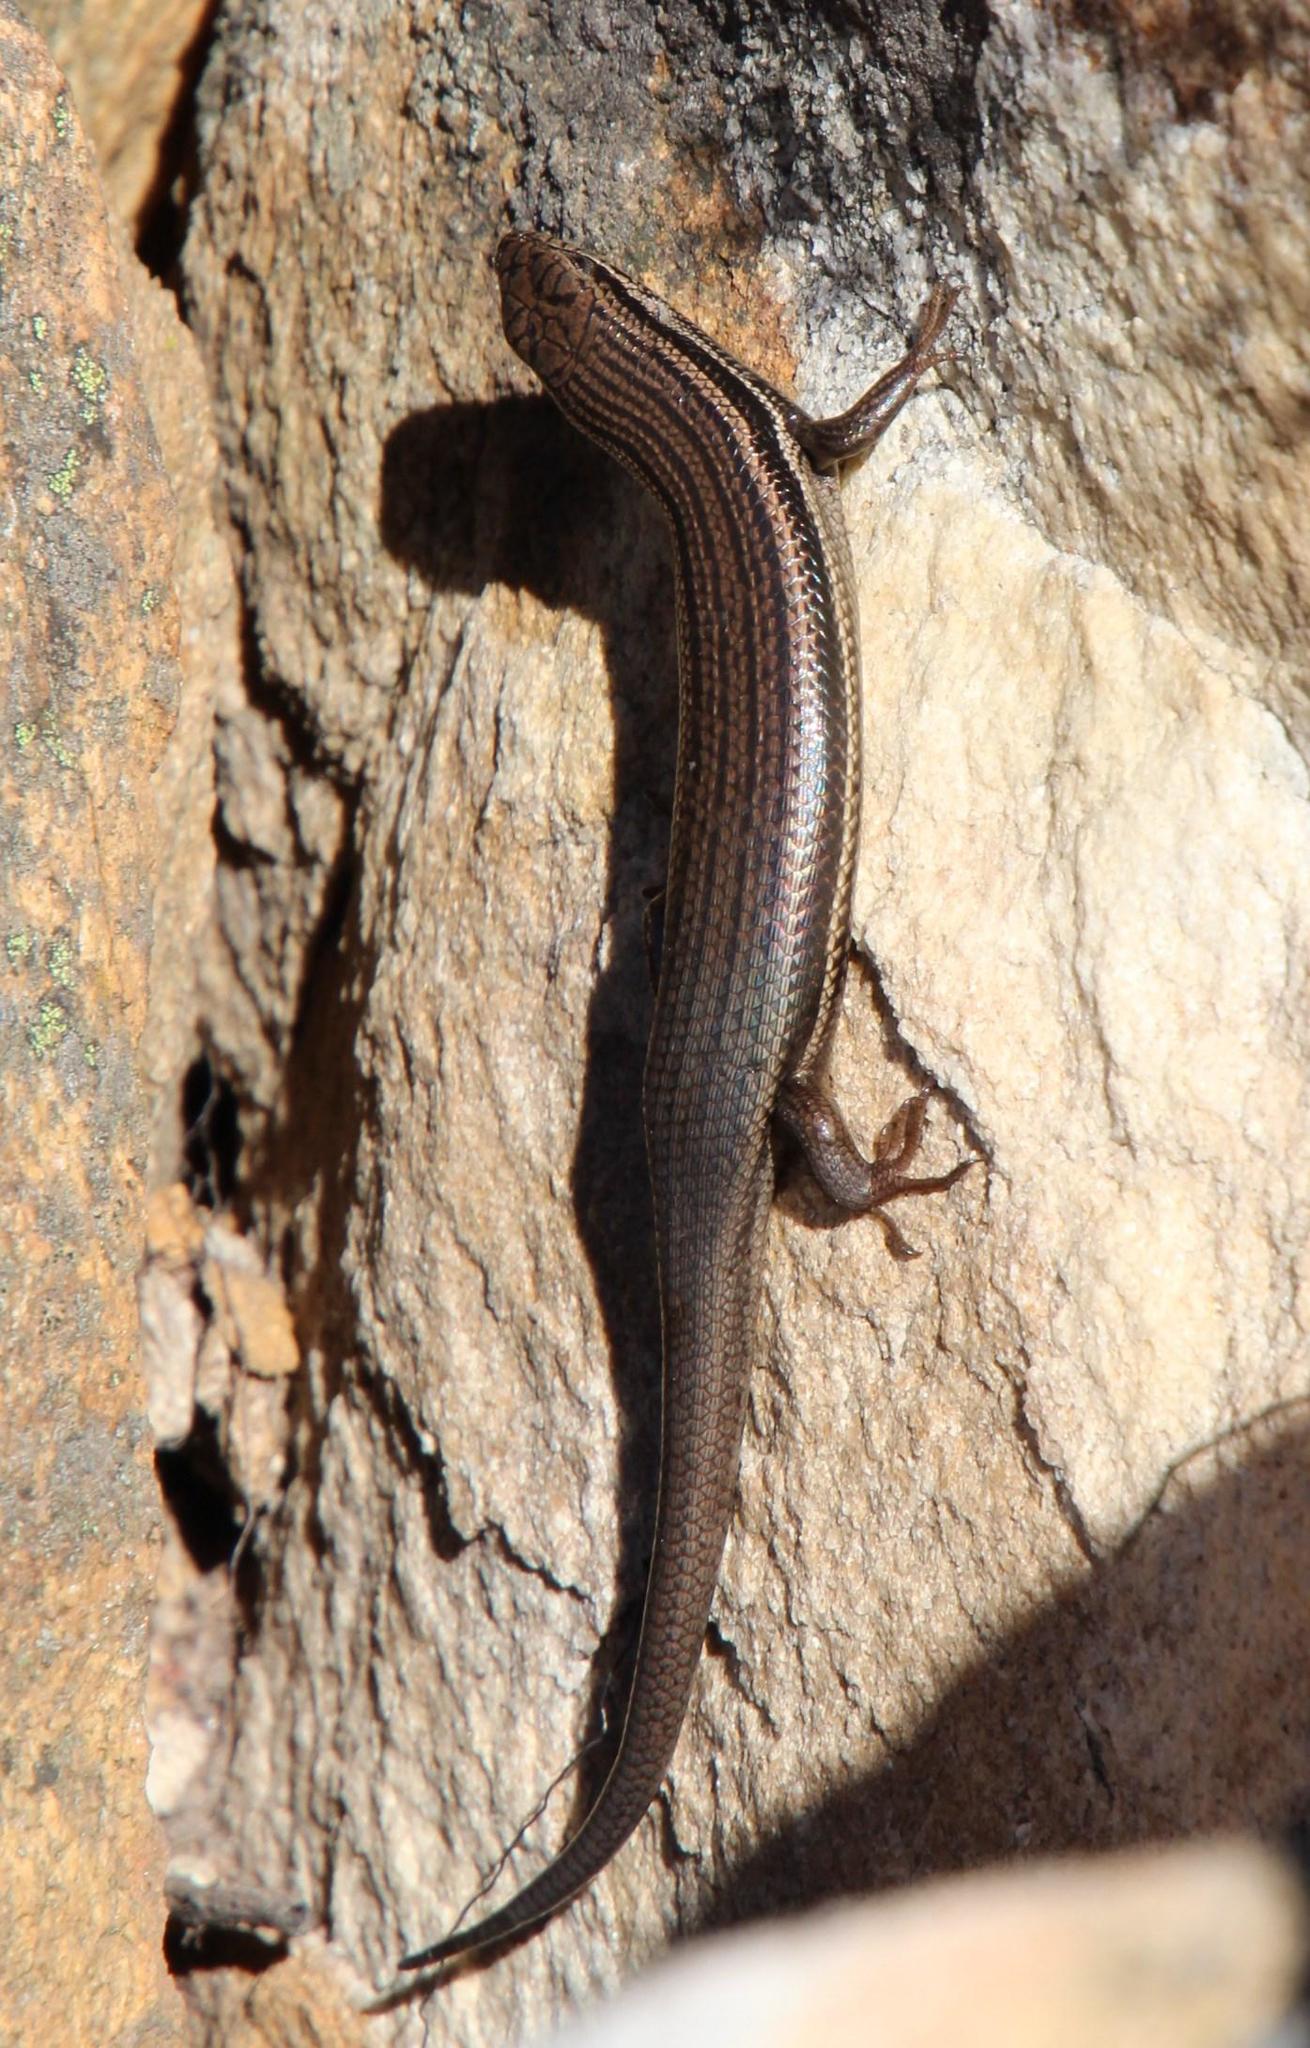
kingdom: Animalia
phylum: Chordata
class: Squamata
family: Scincidae
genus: Trachylepis
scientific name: Trachylepis homalocephala
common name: Red-sided skink
